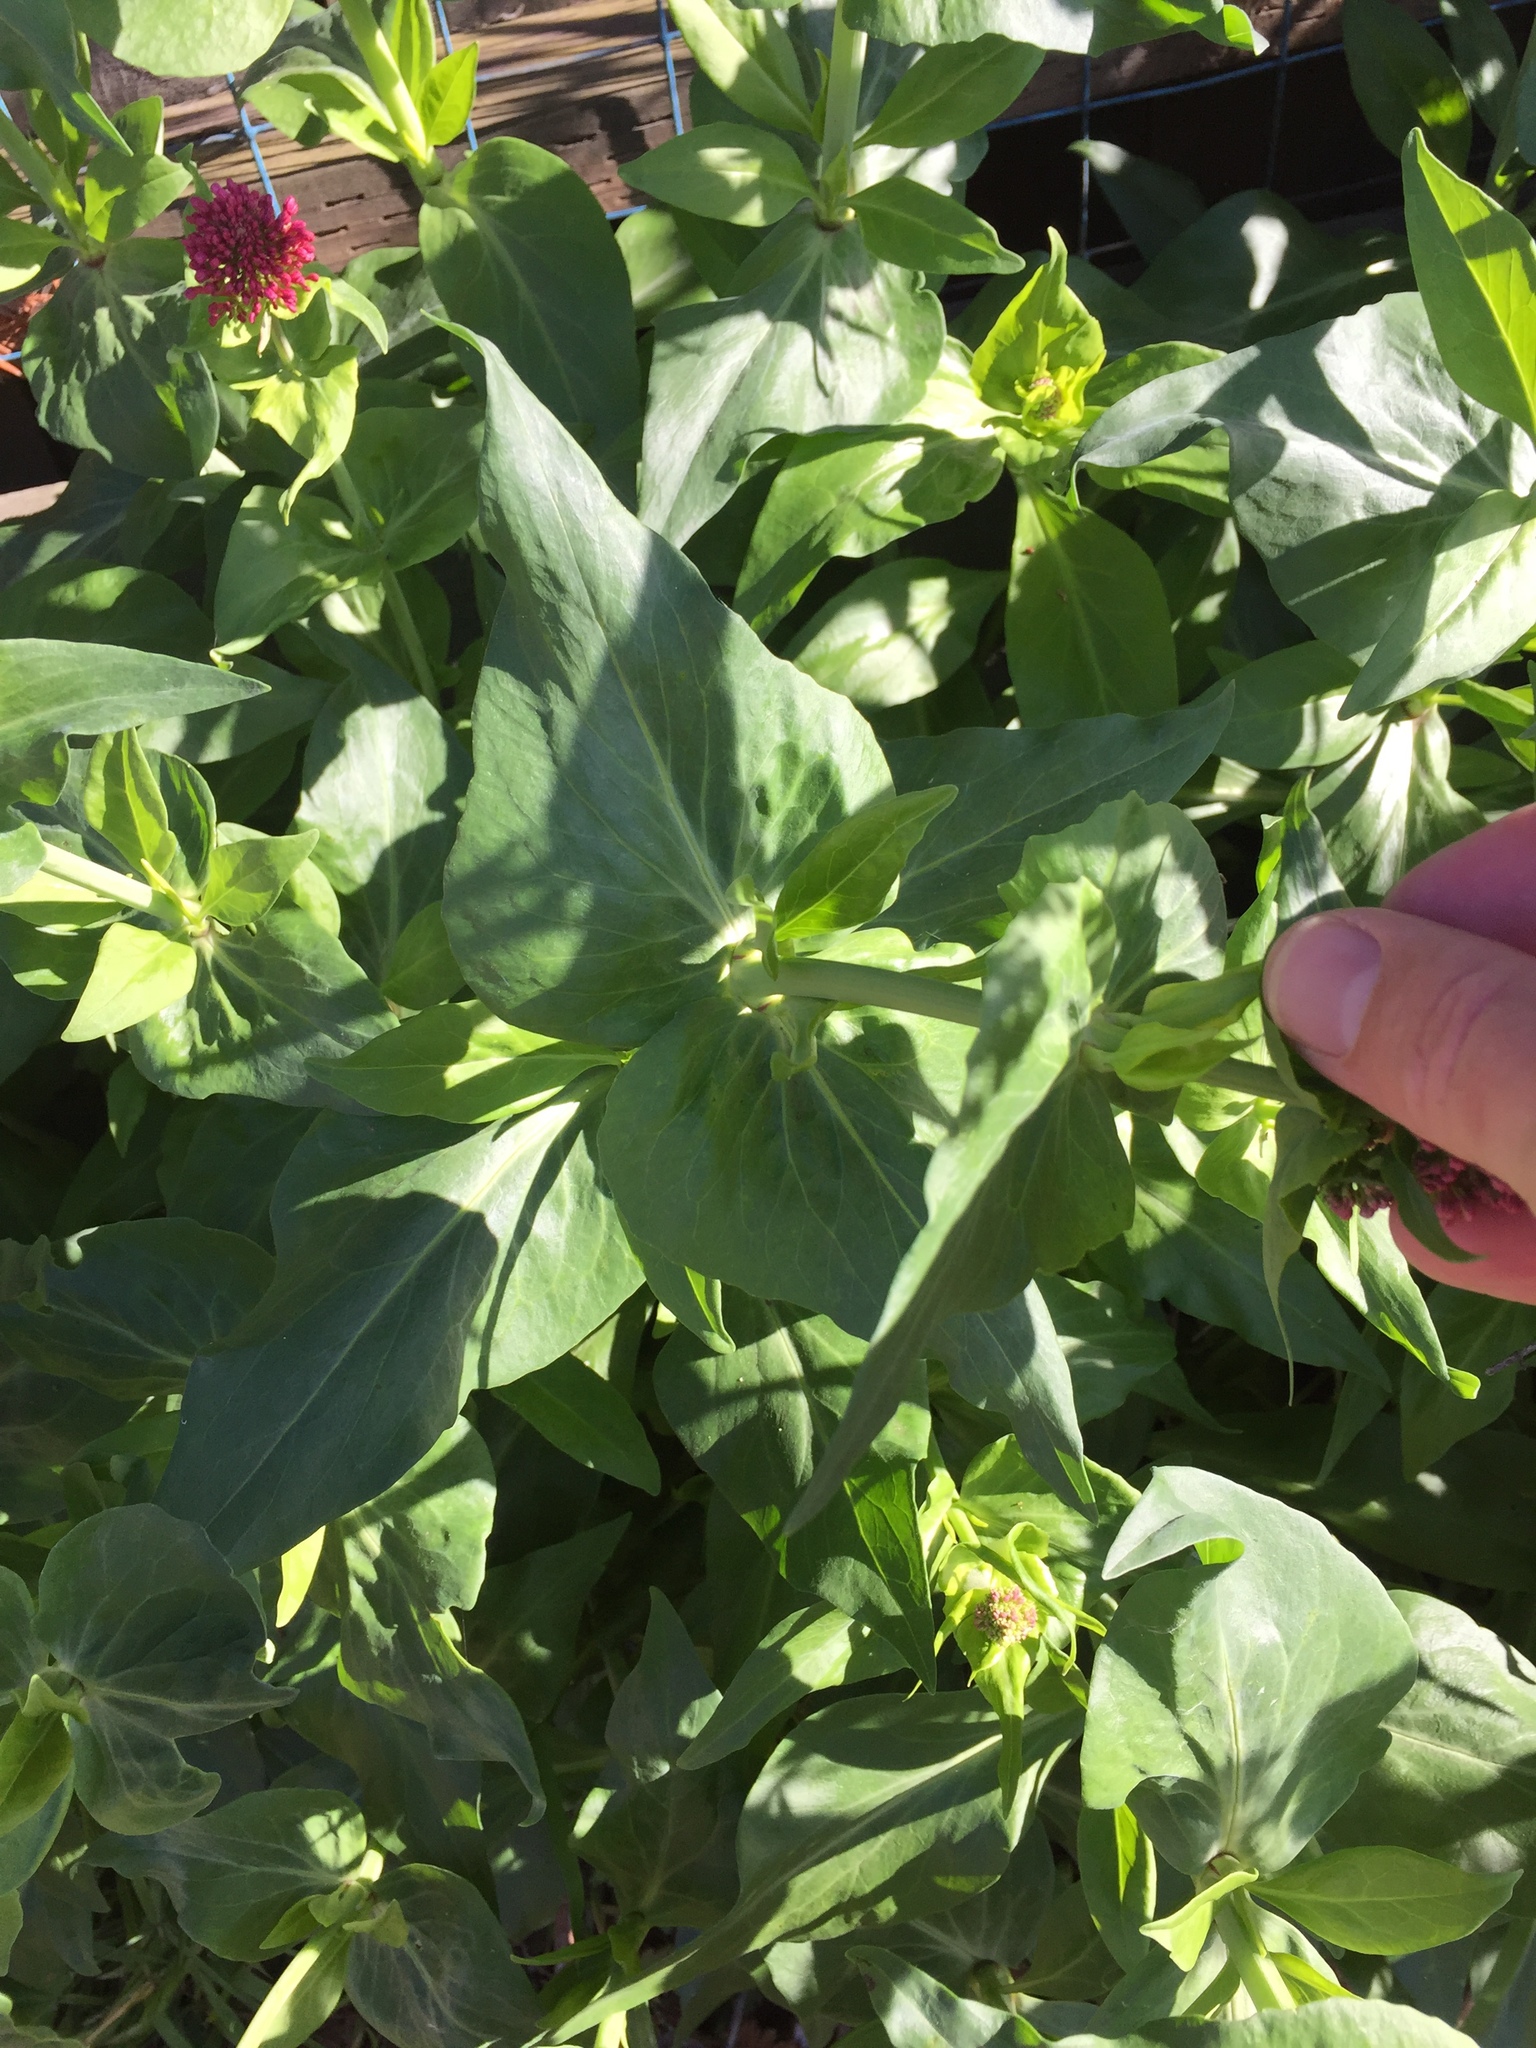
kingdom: Plantae
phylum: Tracheophyta
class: Magnoliopsida
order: Dipsacales
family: Caprifoliaceae
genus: Centranthus
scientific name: Centranthus ruber
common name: Red valerian
